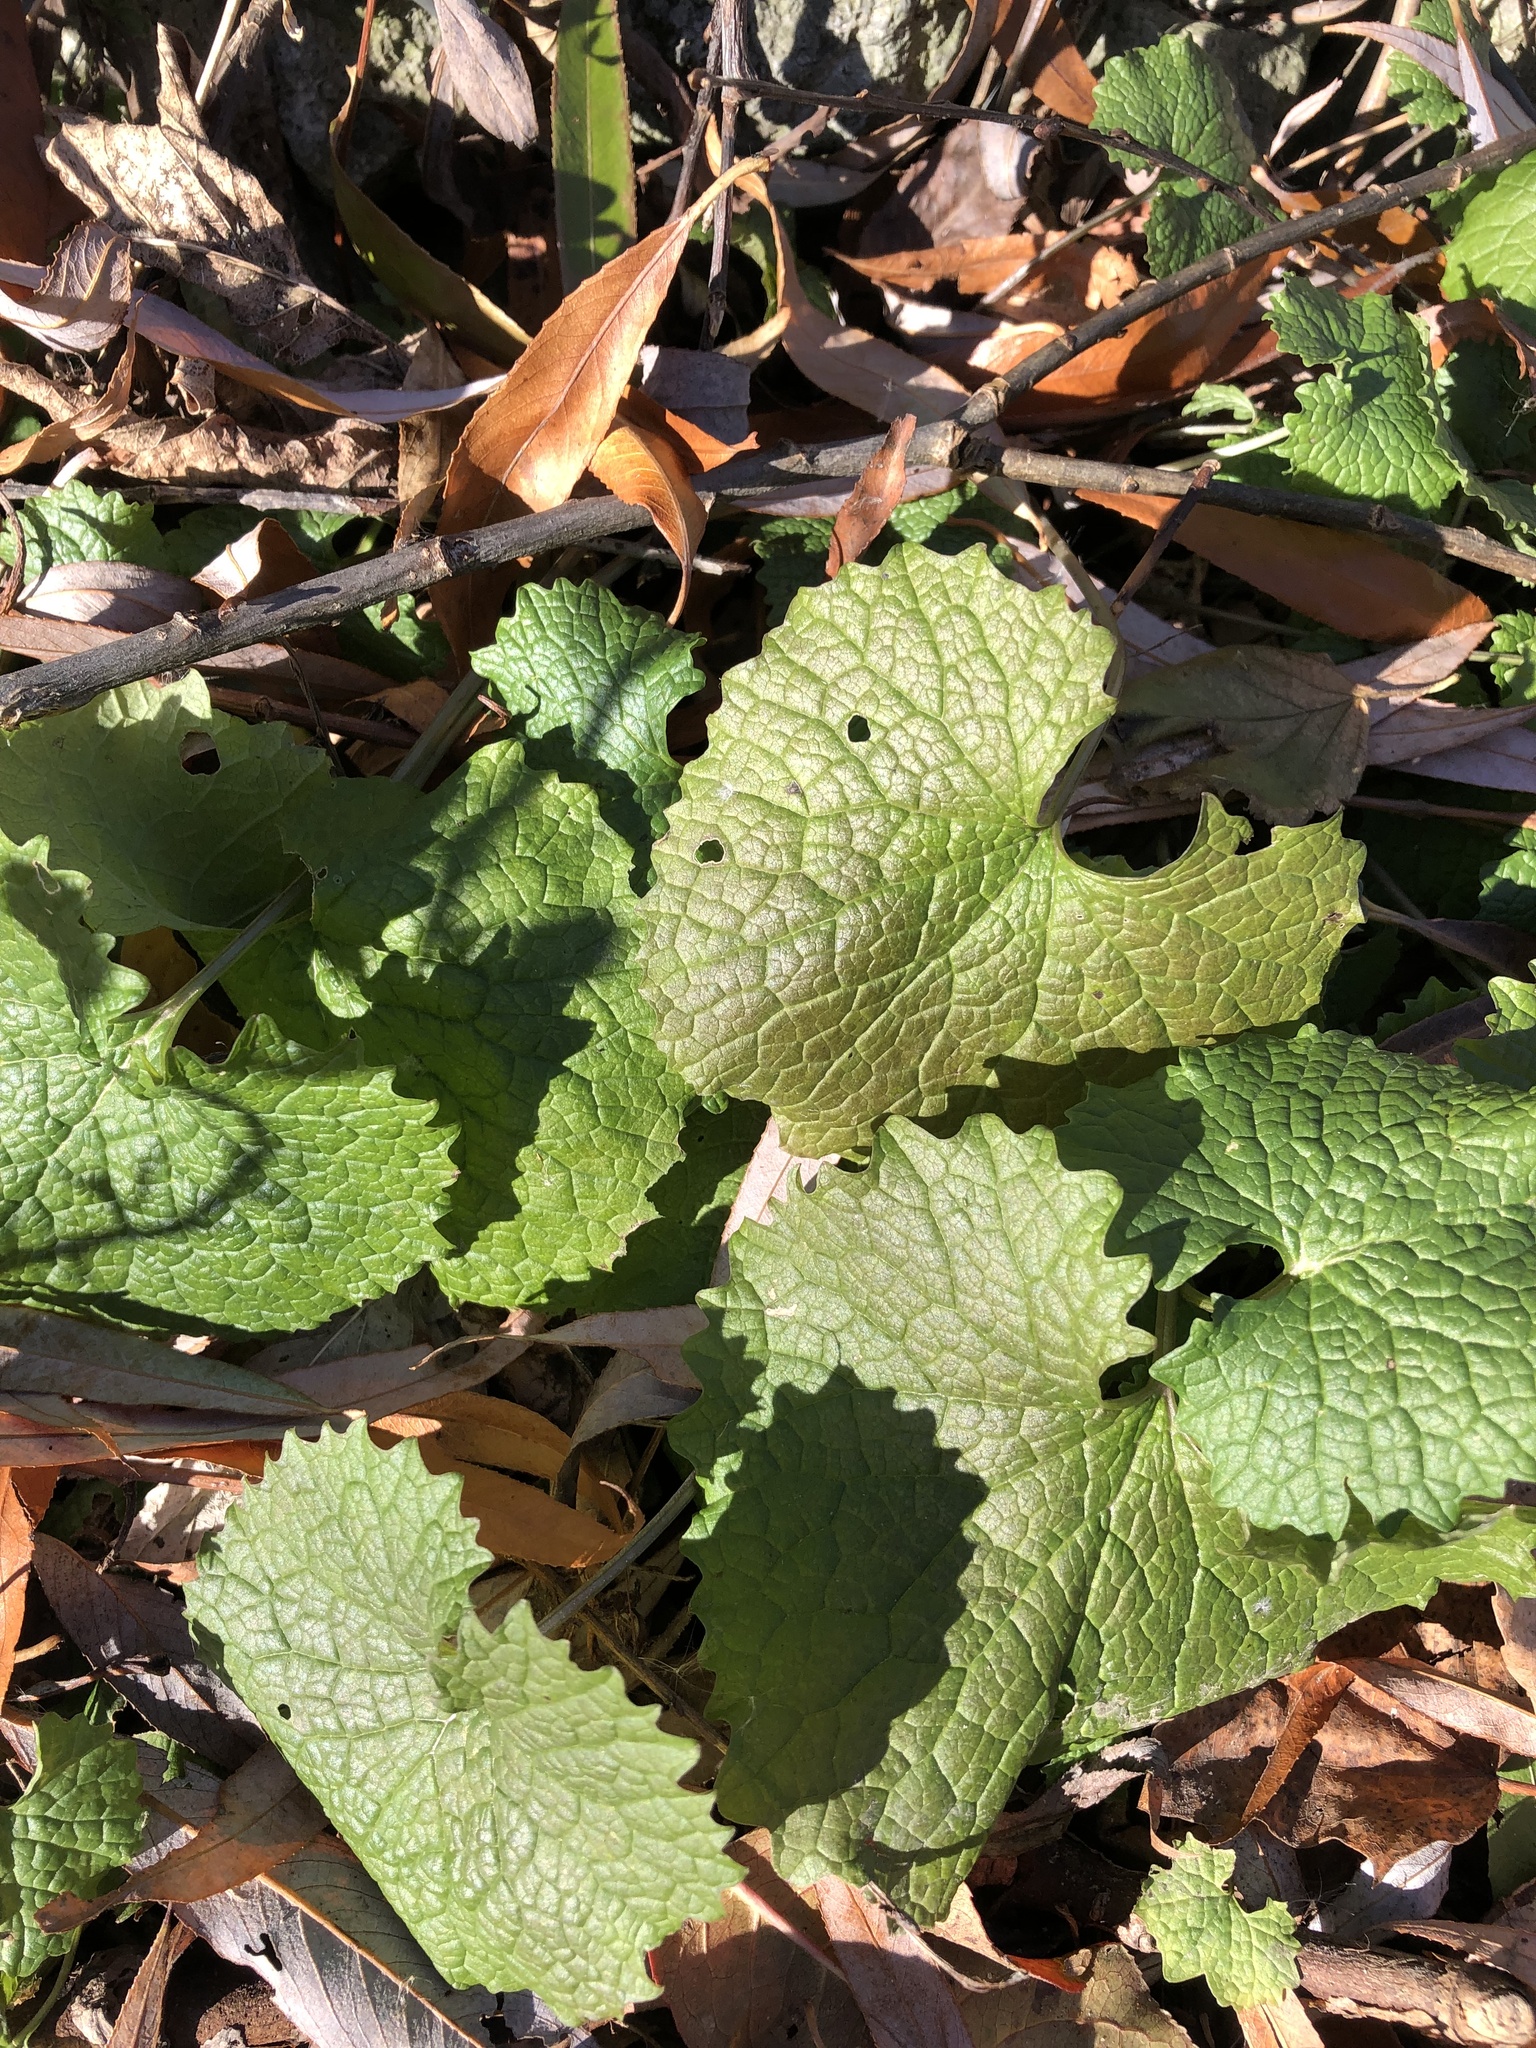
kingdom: Plantae
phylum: Tracheophyta
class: Magnoliopsida
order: Brassicales
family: Brassicaceae
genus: Alliaria
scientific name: Alliaria petiolata
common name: Garlic mustard
